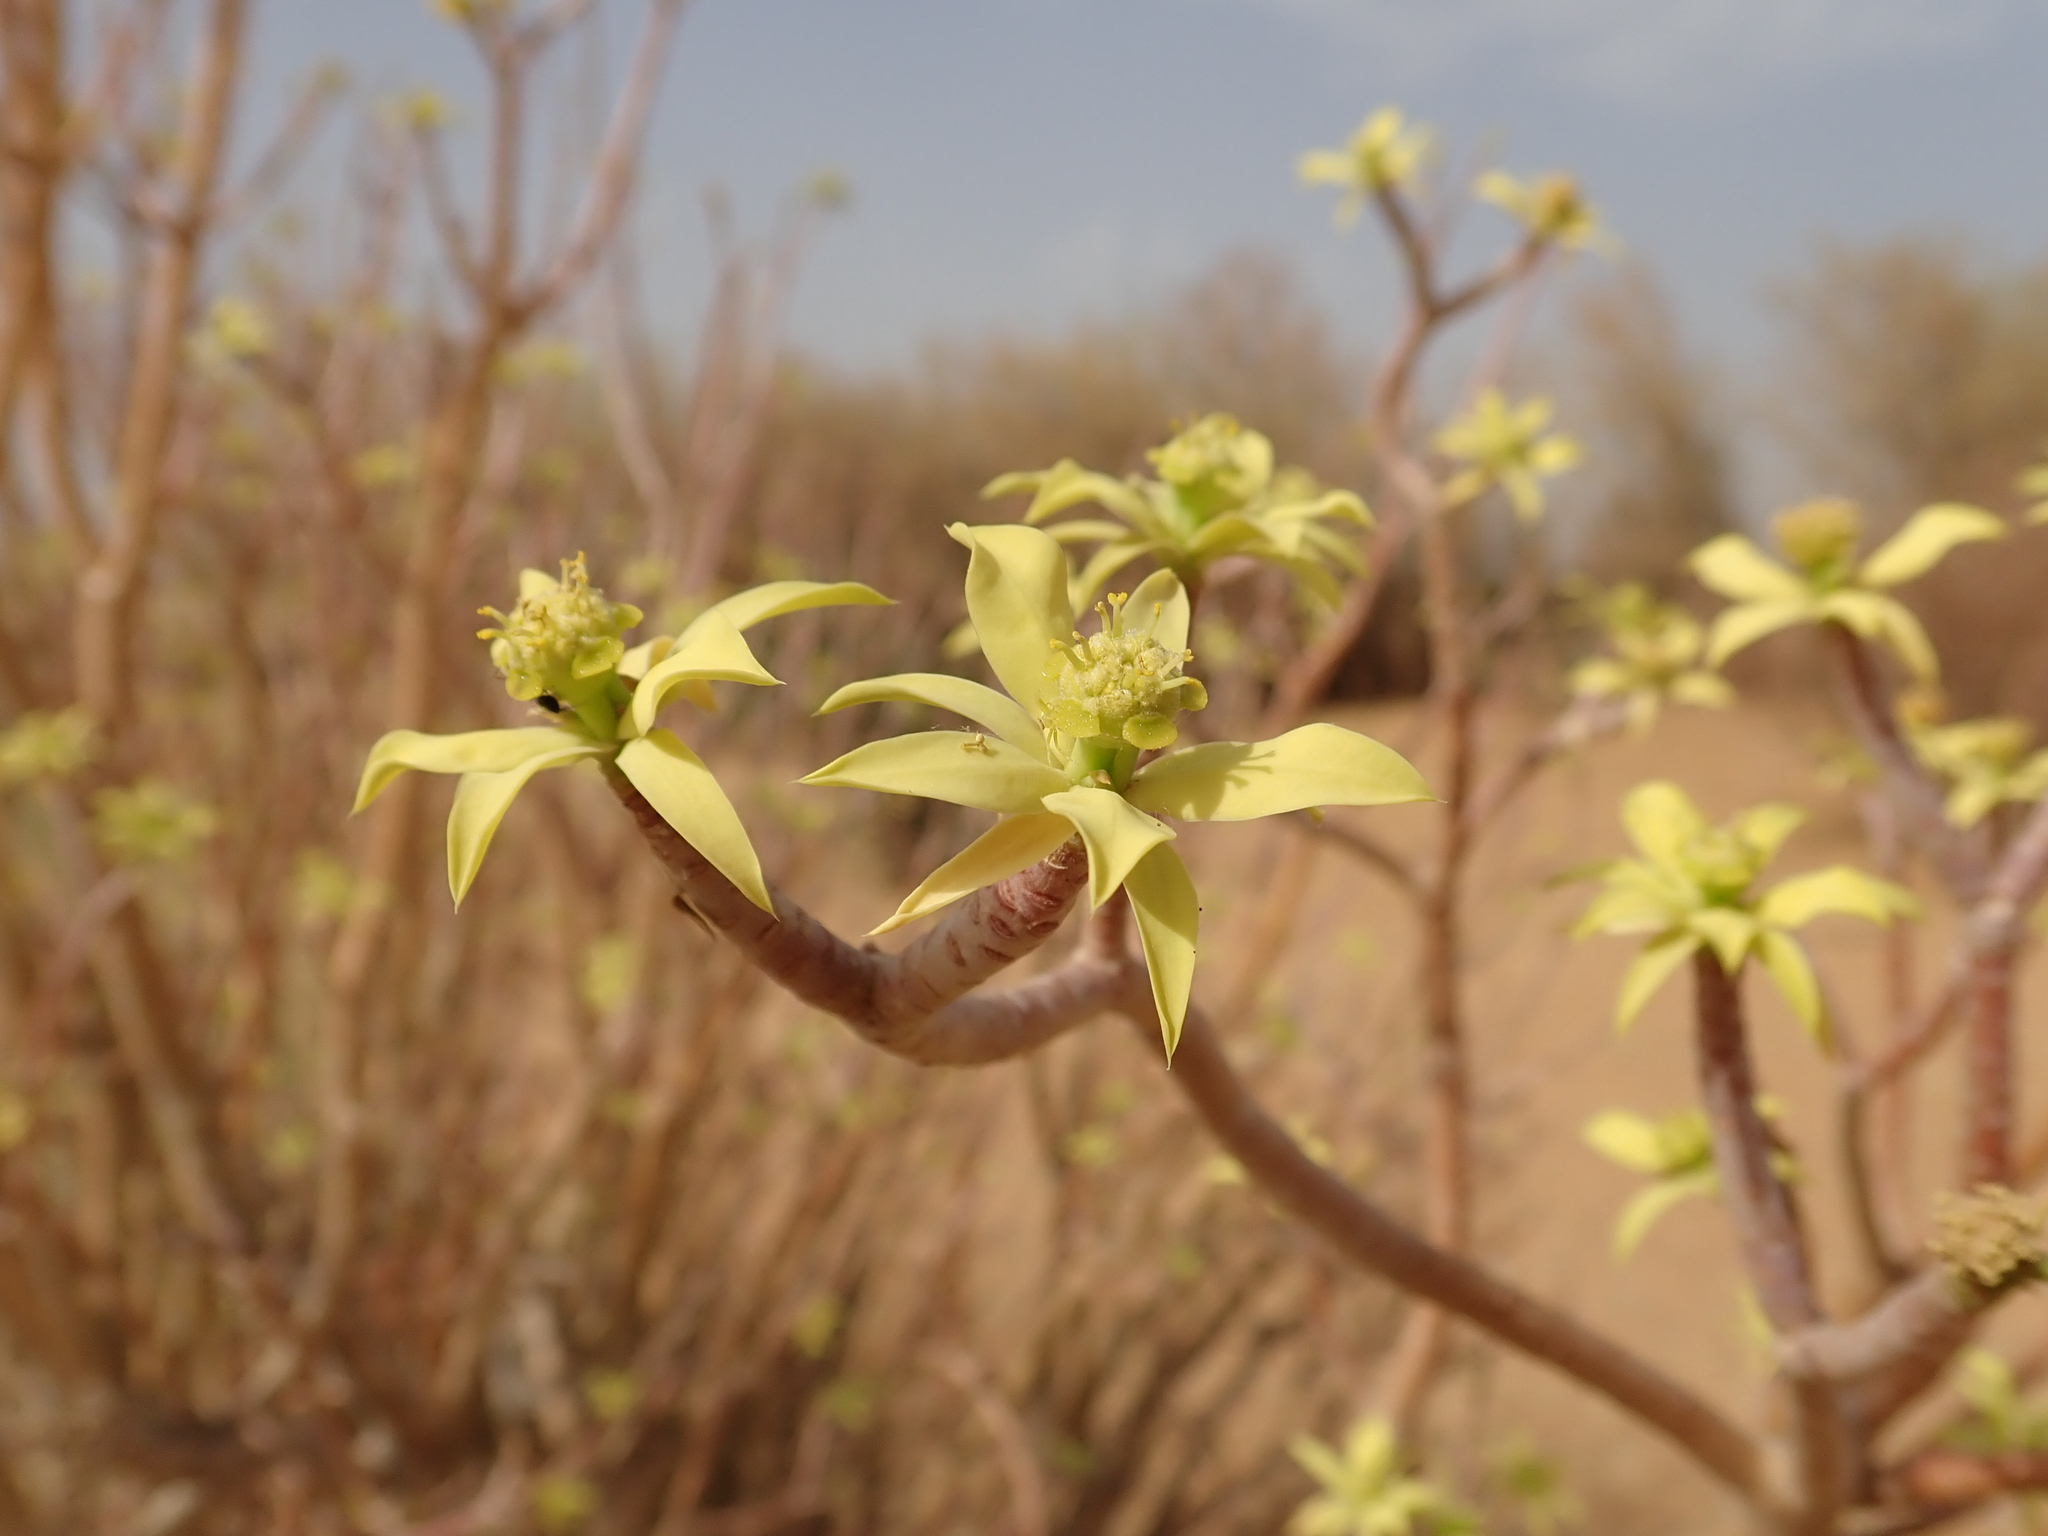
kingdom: Plantae
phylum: Tracheophyta
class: Magnoliopsida
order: Malpighiales
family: Euphorbiaceae
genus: Euphorbia
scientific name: Euphorbia sepium
